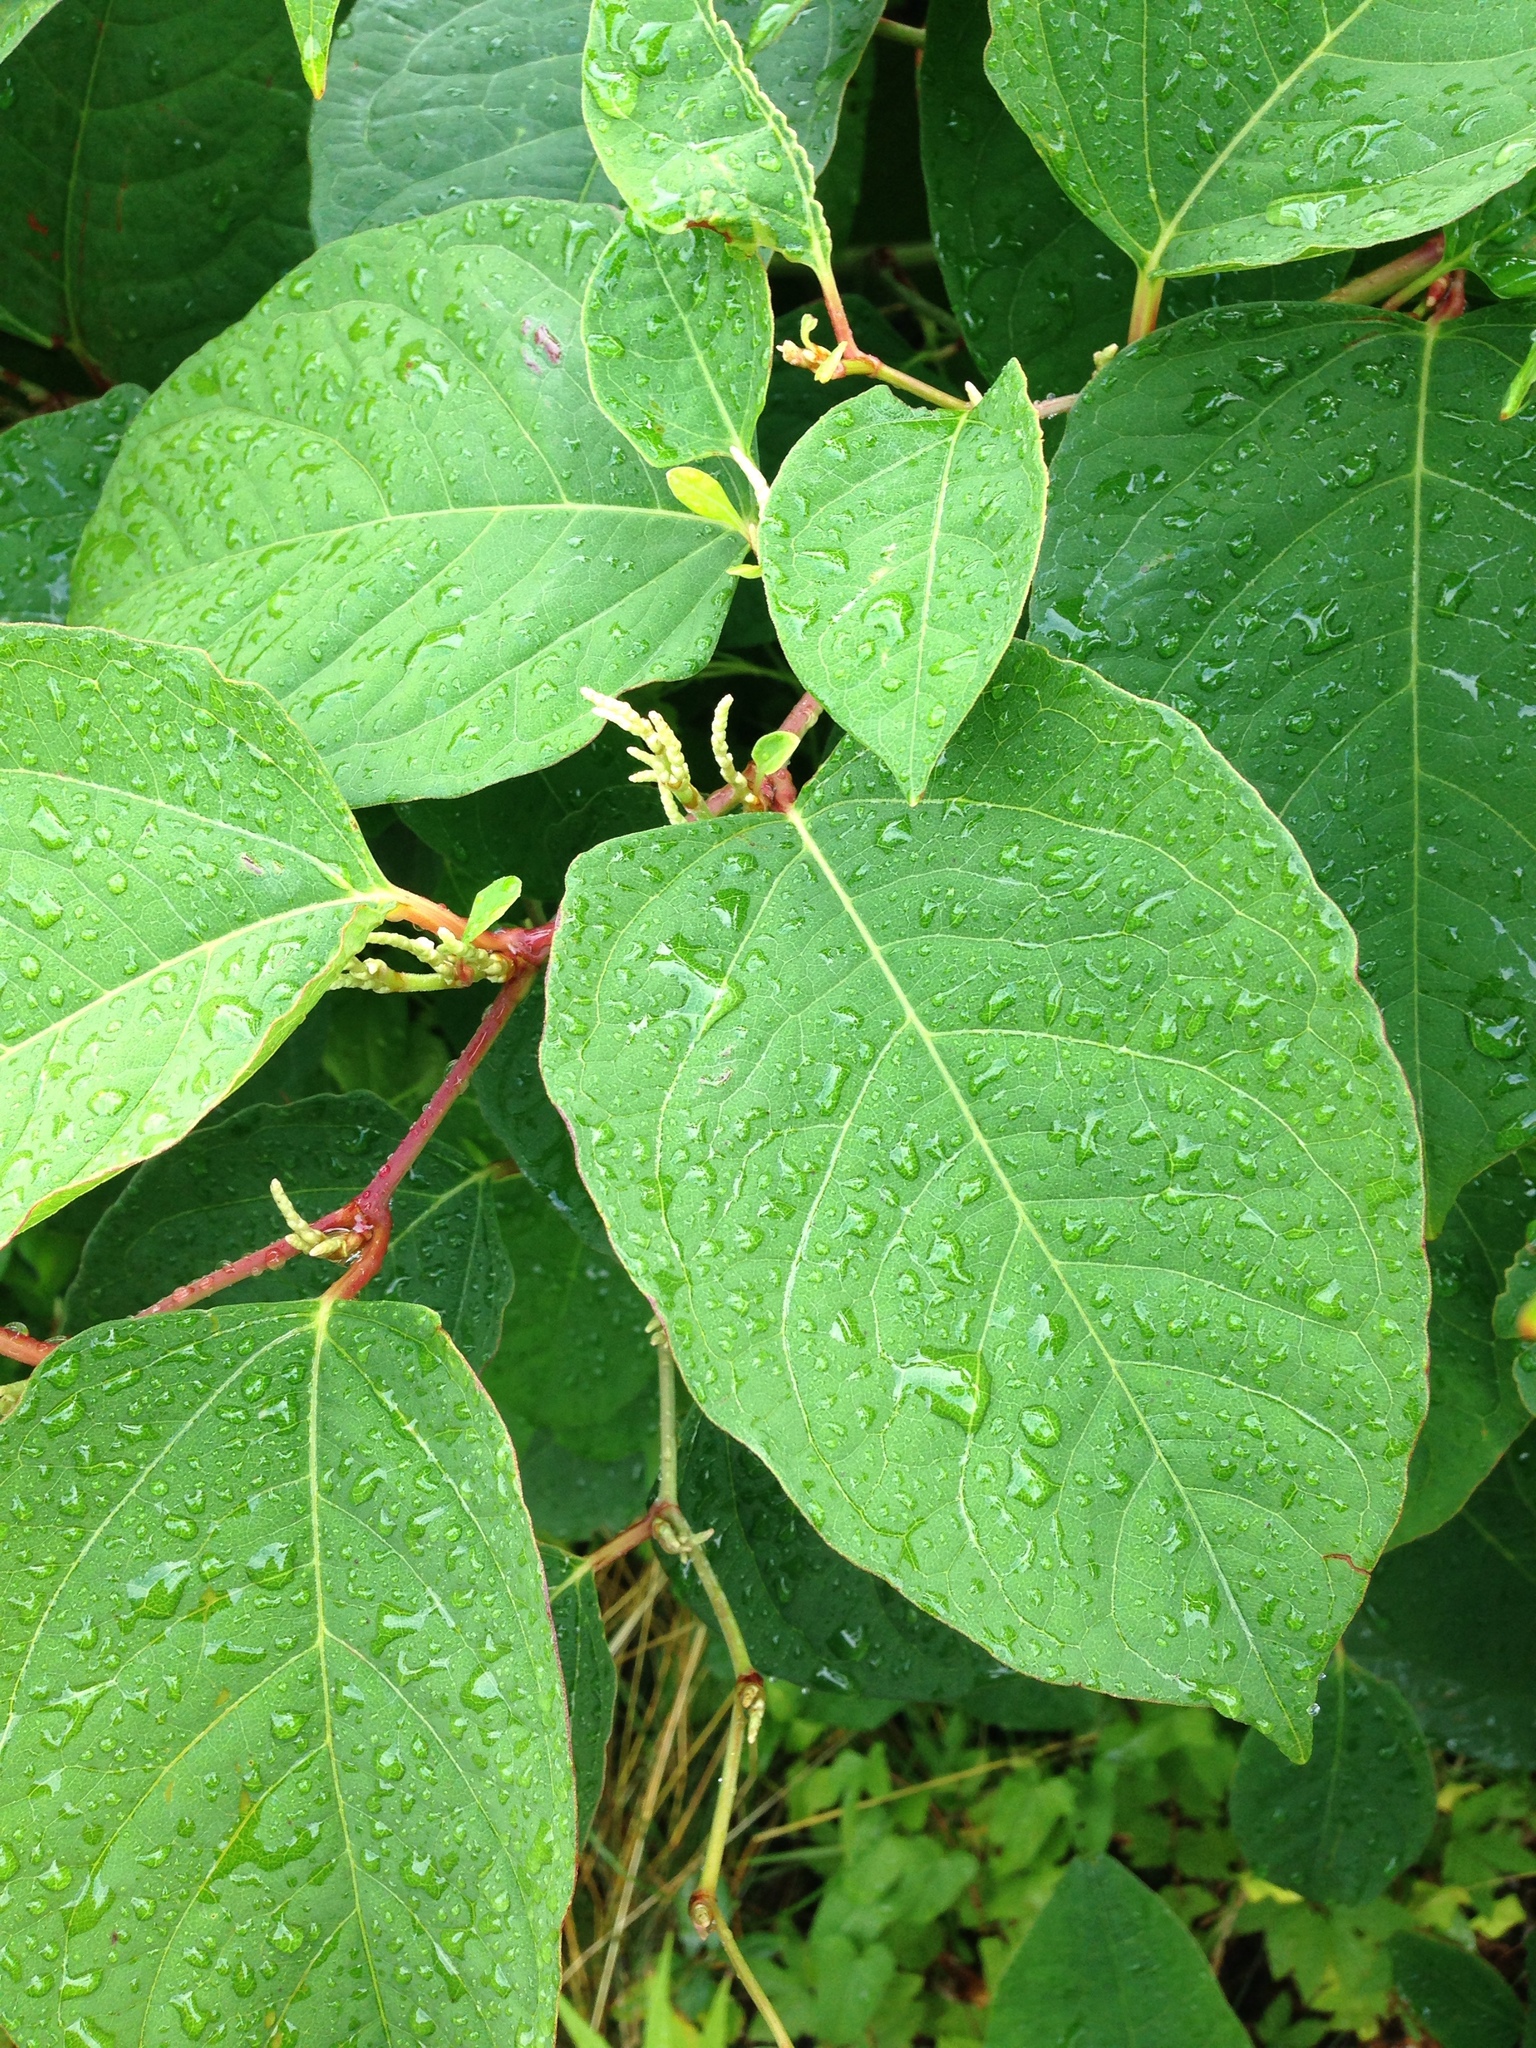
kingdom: Plantae
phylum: Tracheophyta
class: Magnoliopsida
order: Caryophyllales
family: Polygonaceae
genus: Reynoutria
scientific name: Reynoutria japonica
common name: Japanese knotweed
